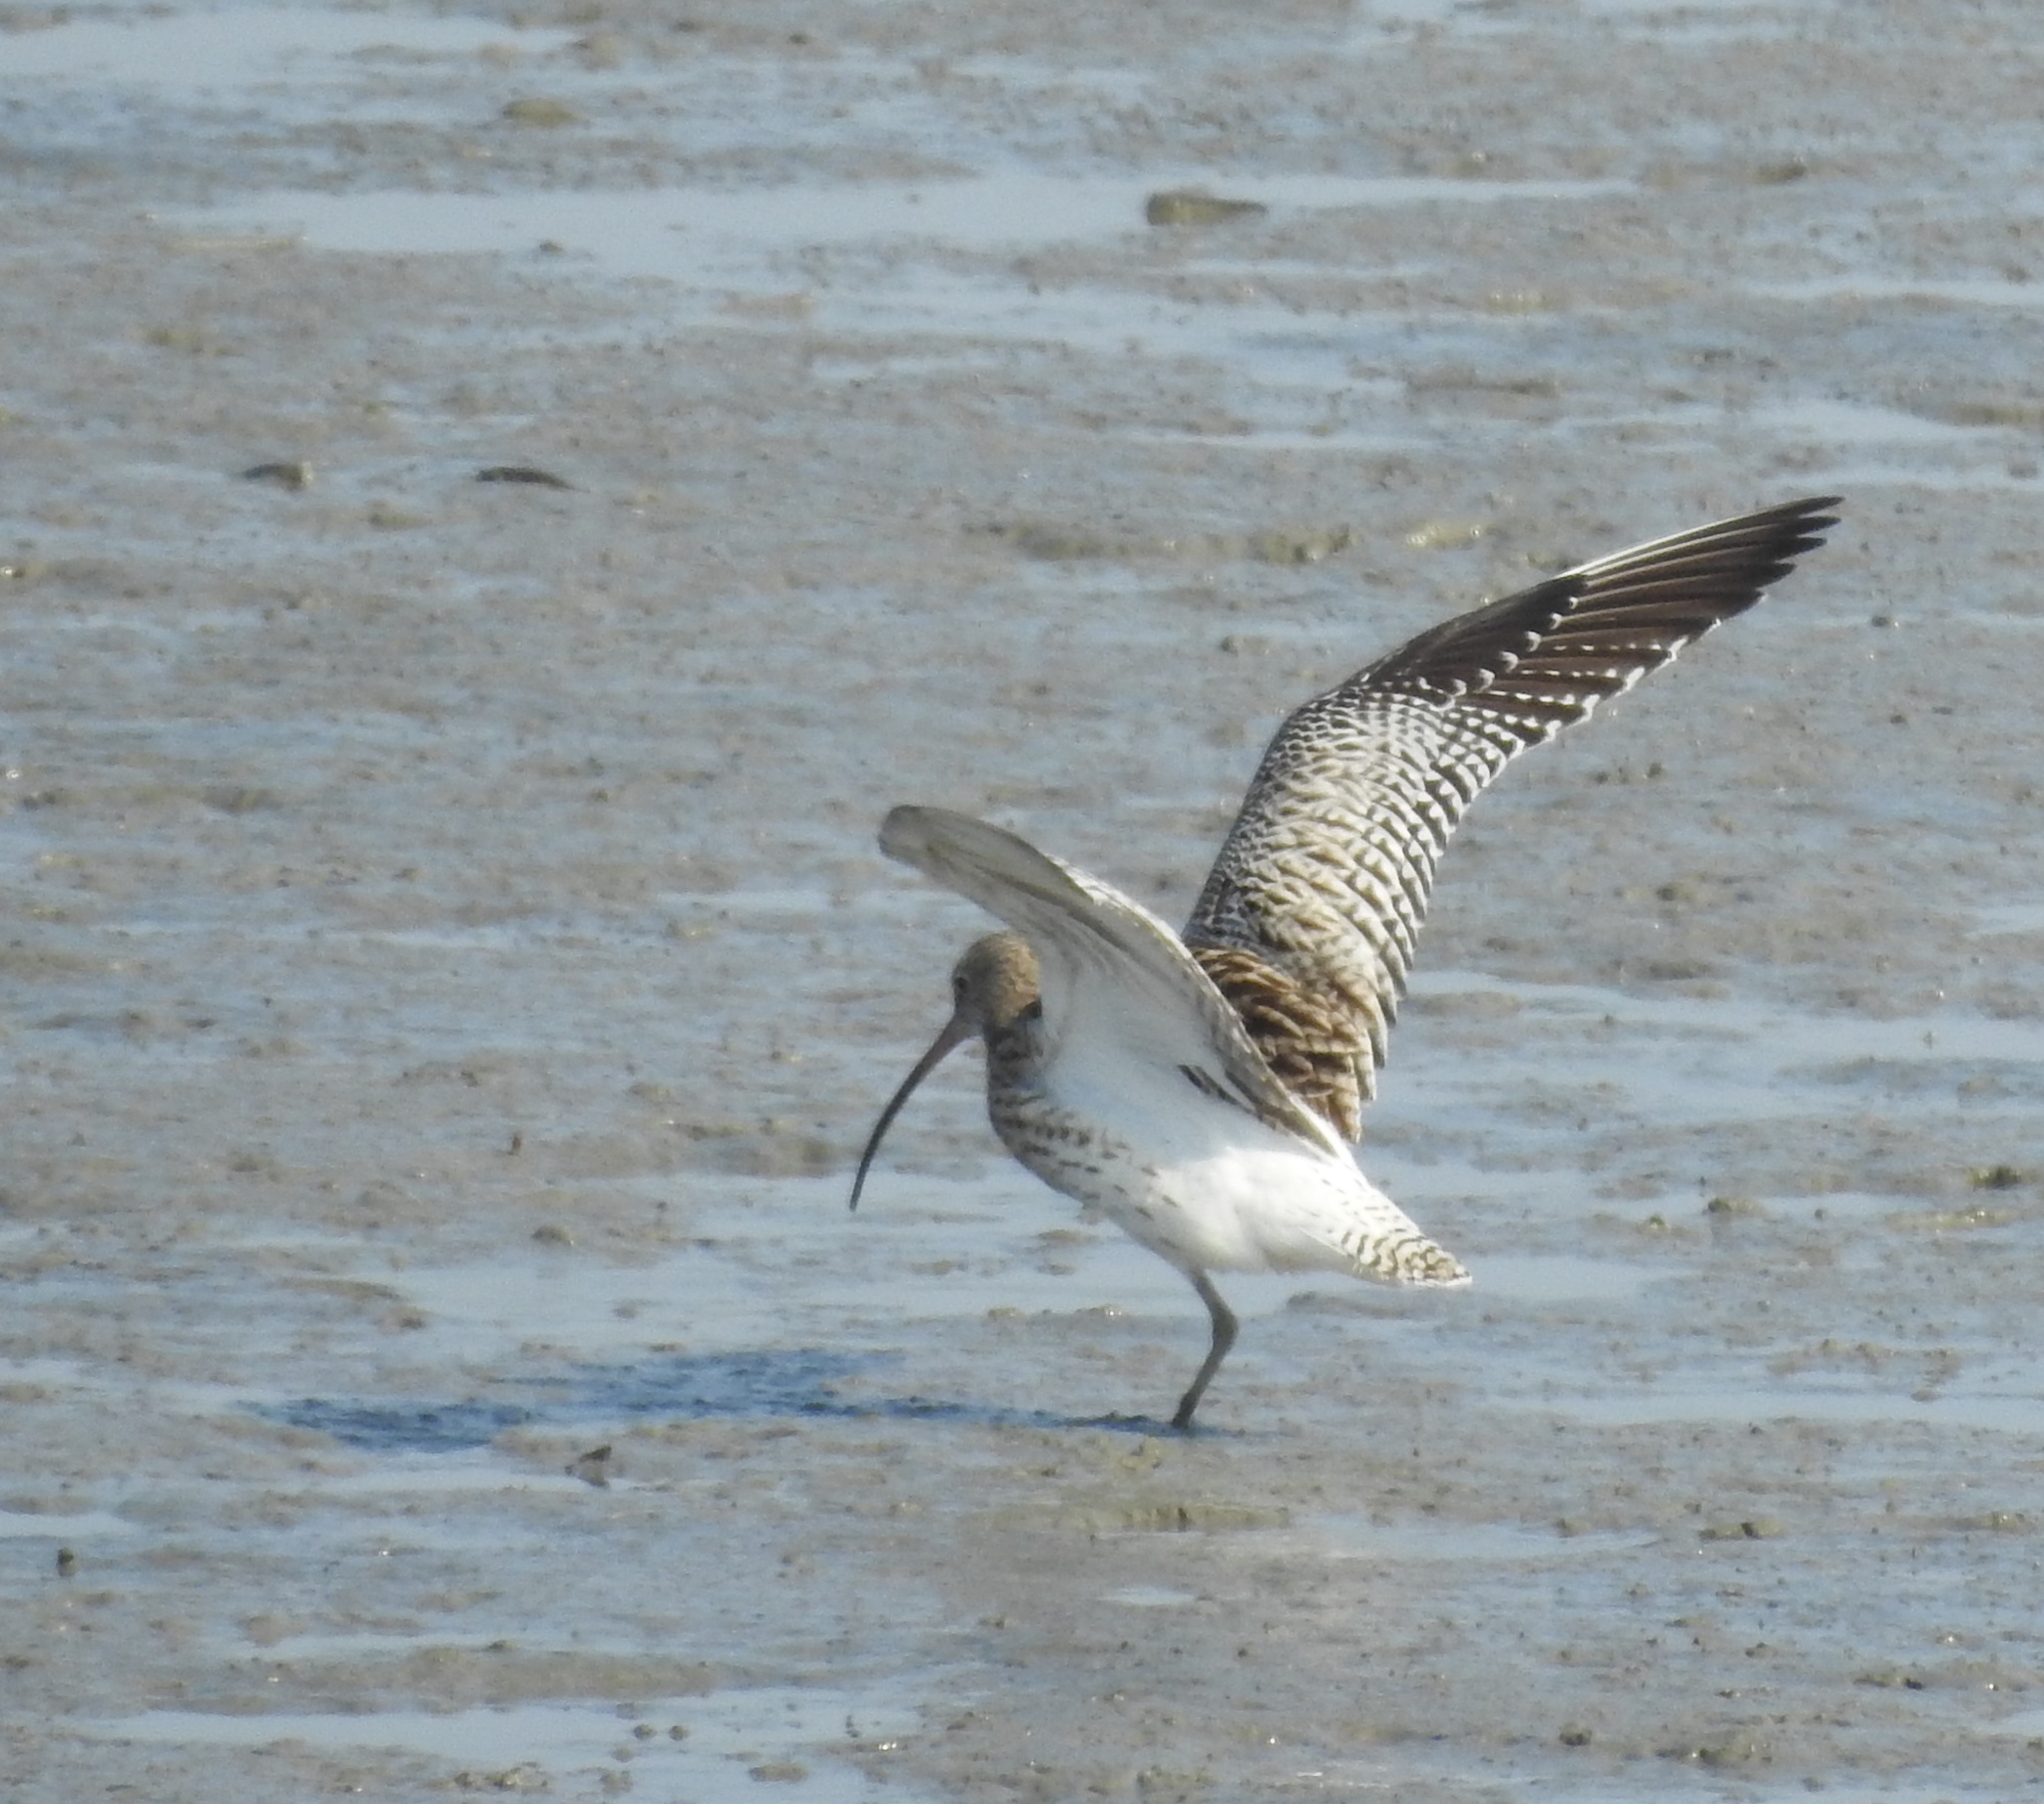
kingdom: Animalia
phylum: Chordata
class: Aves
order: Charadriiformes
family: Scolopacidae
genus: Numenius
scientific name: Numenius arquata
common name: Eurasian curlew
